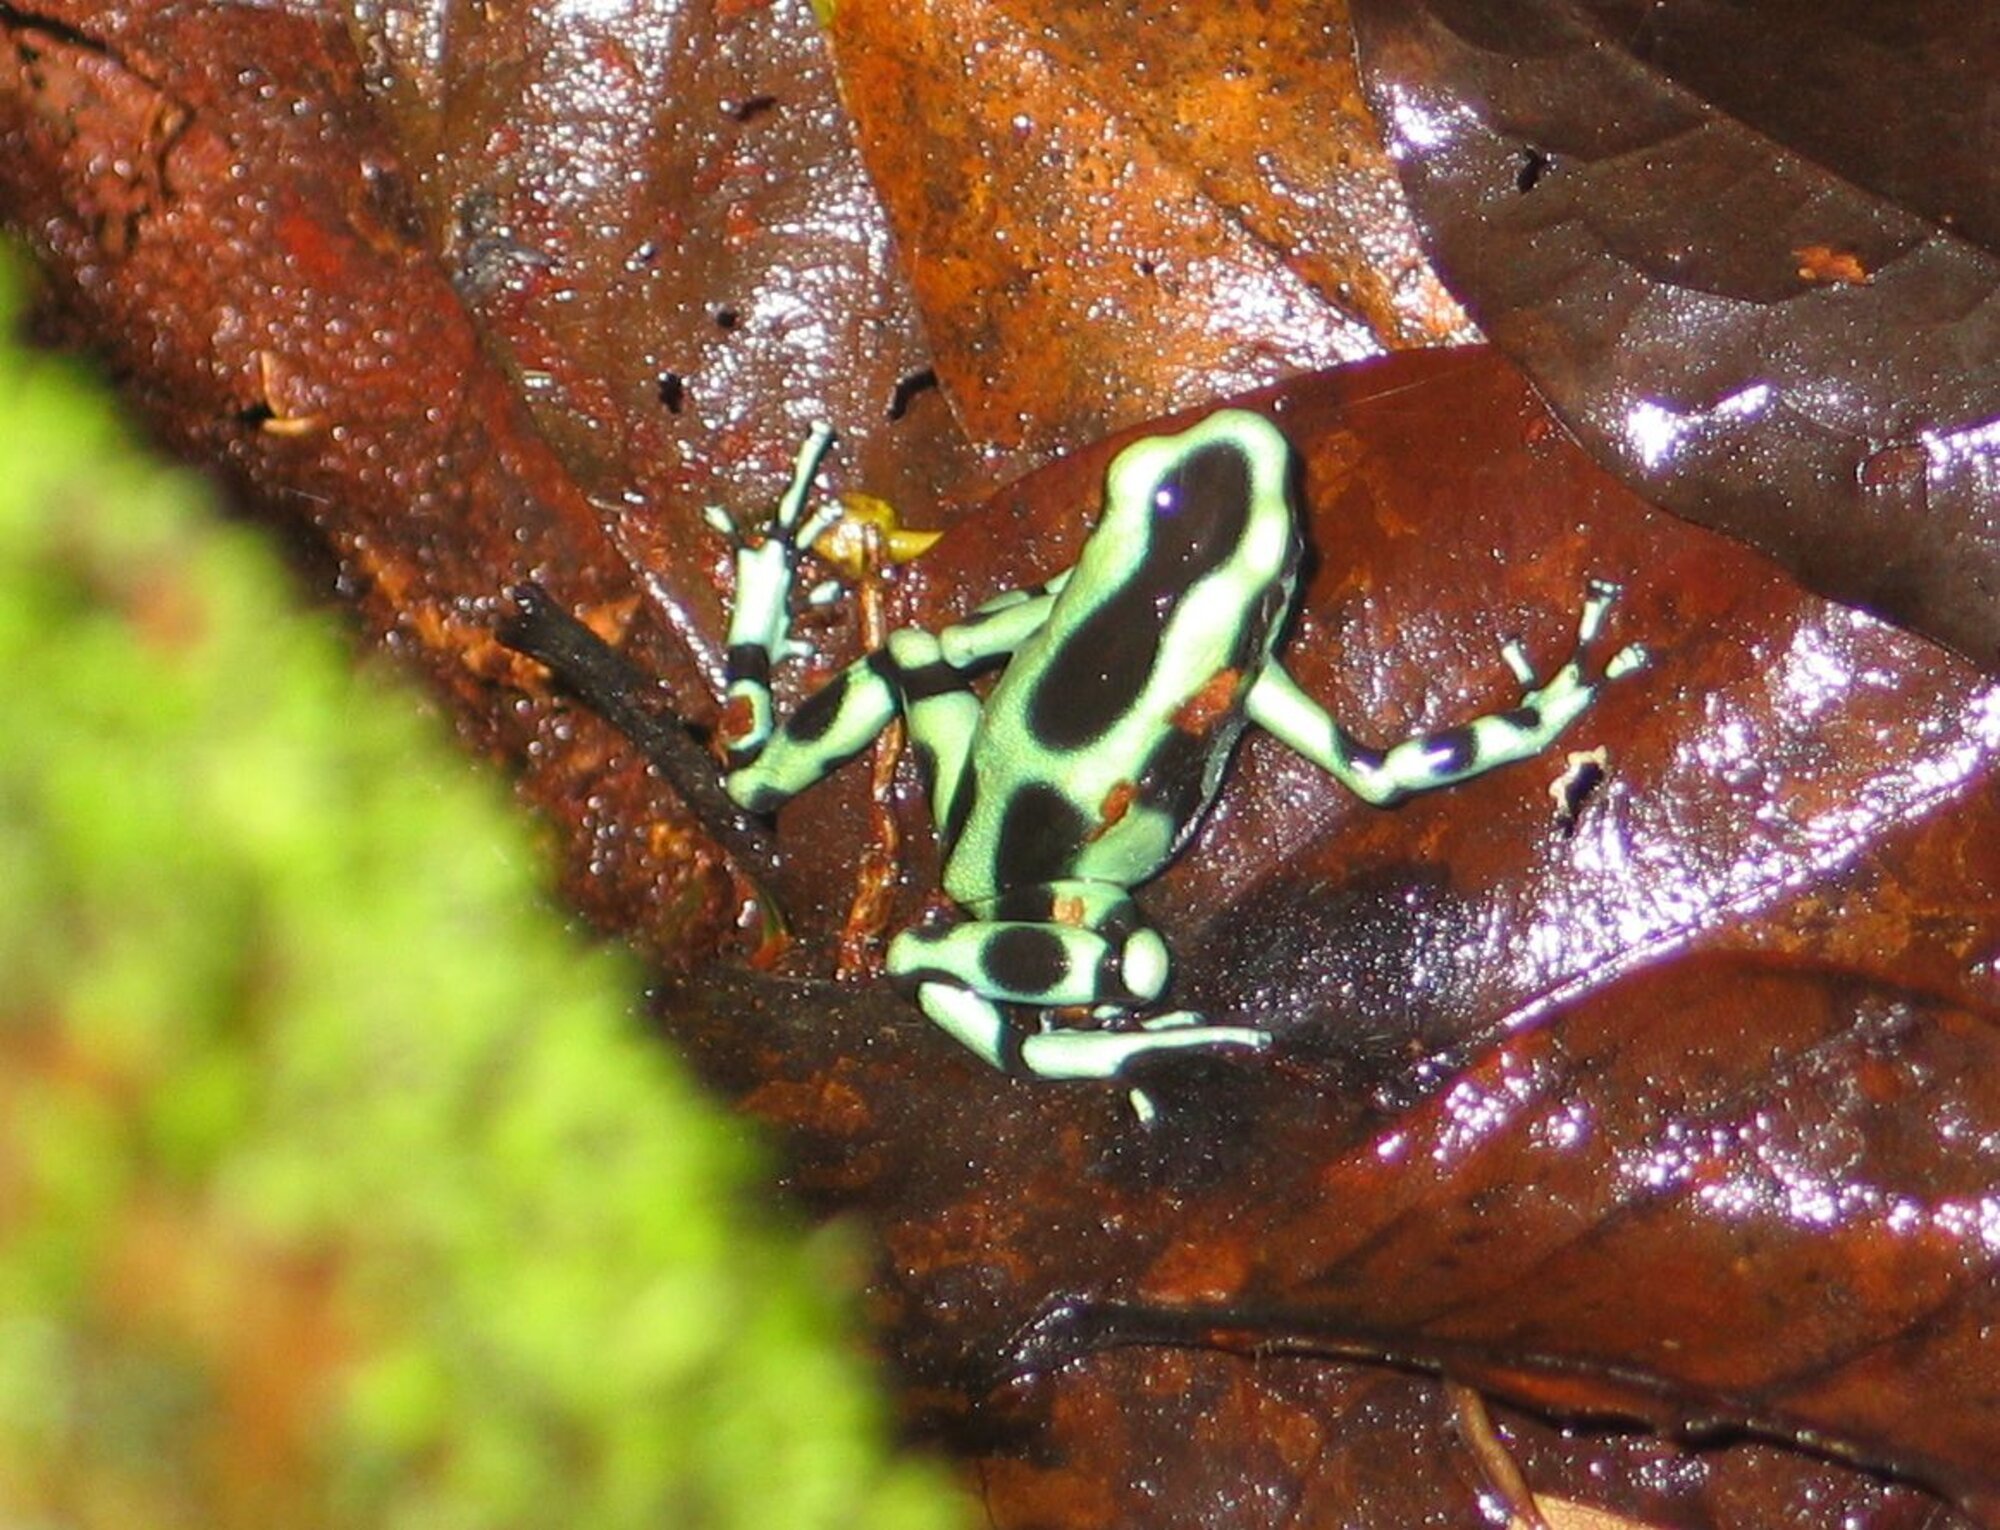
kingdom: Animalia
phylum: Chordata
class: Amphibia
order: Anura
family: Dendrobatidae
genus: Dendrobates
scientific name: Dendrobates auratus
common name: Green and black poison dart frog
